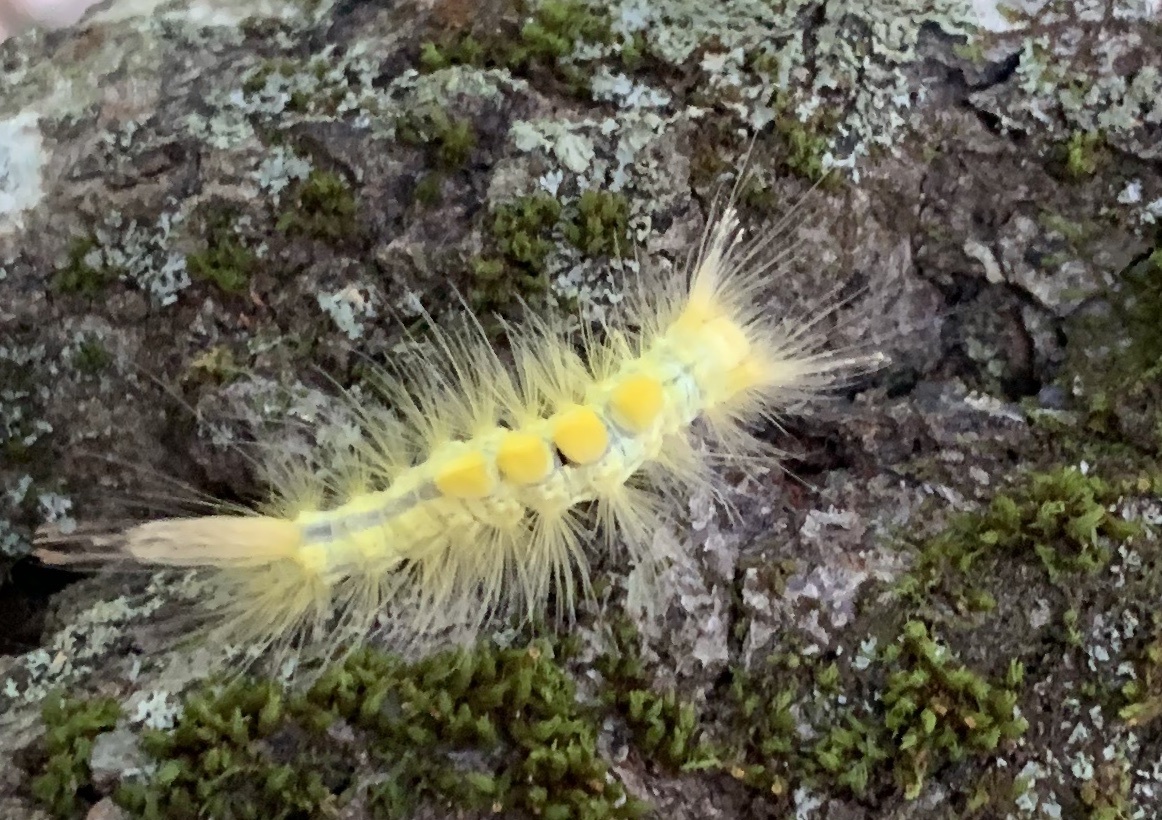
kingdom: Animalia
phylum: Arthropoda
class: Insecta
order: Lepidoptera
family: Erebidae
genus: Orgyia
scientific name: Orgyia definita
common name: Definite tussock moth
